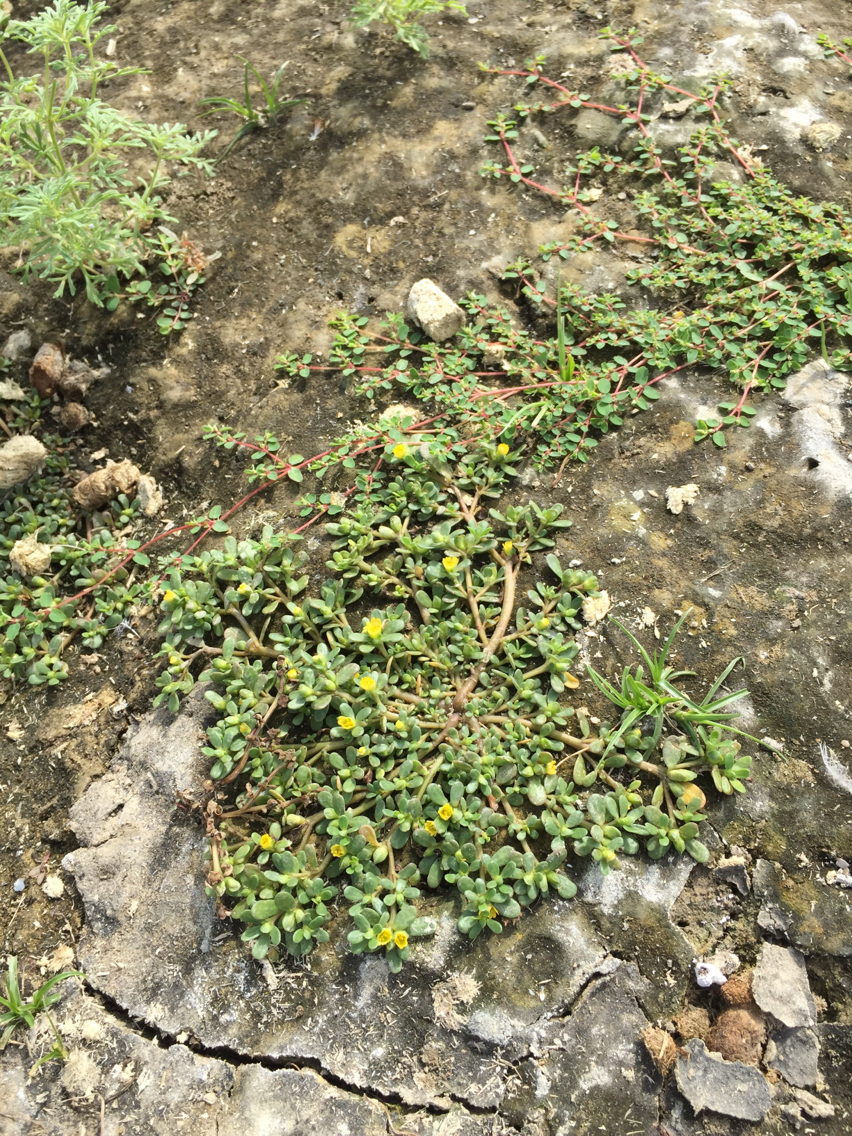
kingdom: Plantae
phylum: Tracheophyta
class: Magnoliopsida
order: Caryophyllales
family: Portulacaceae
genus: Portulaca
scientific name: Portulaca oleracea
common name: Common purslane
